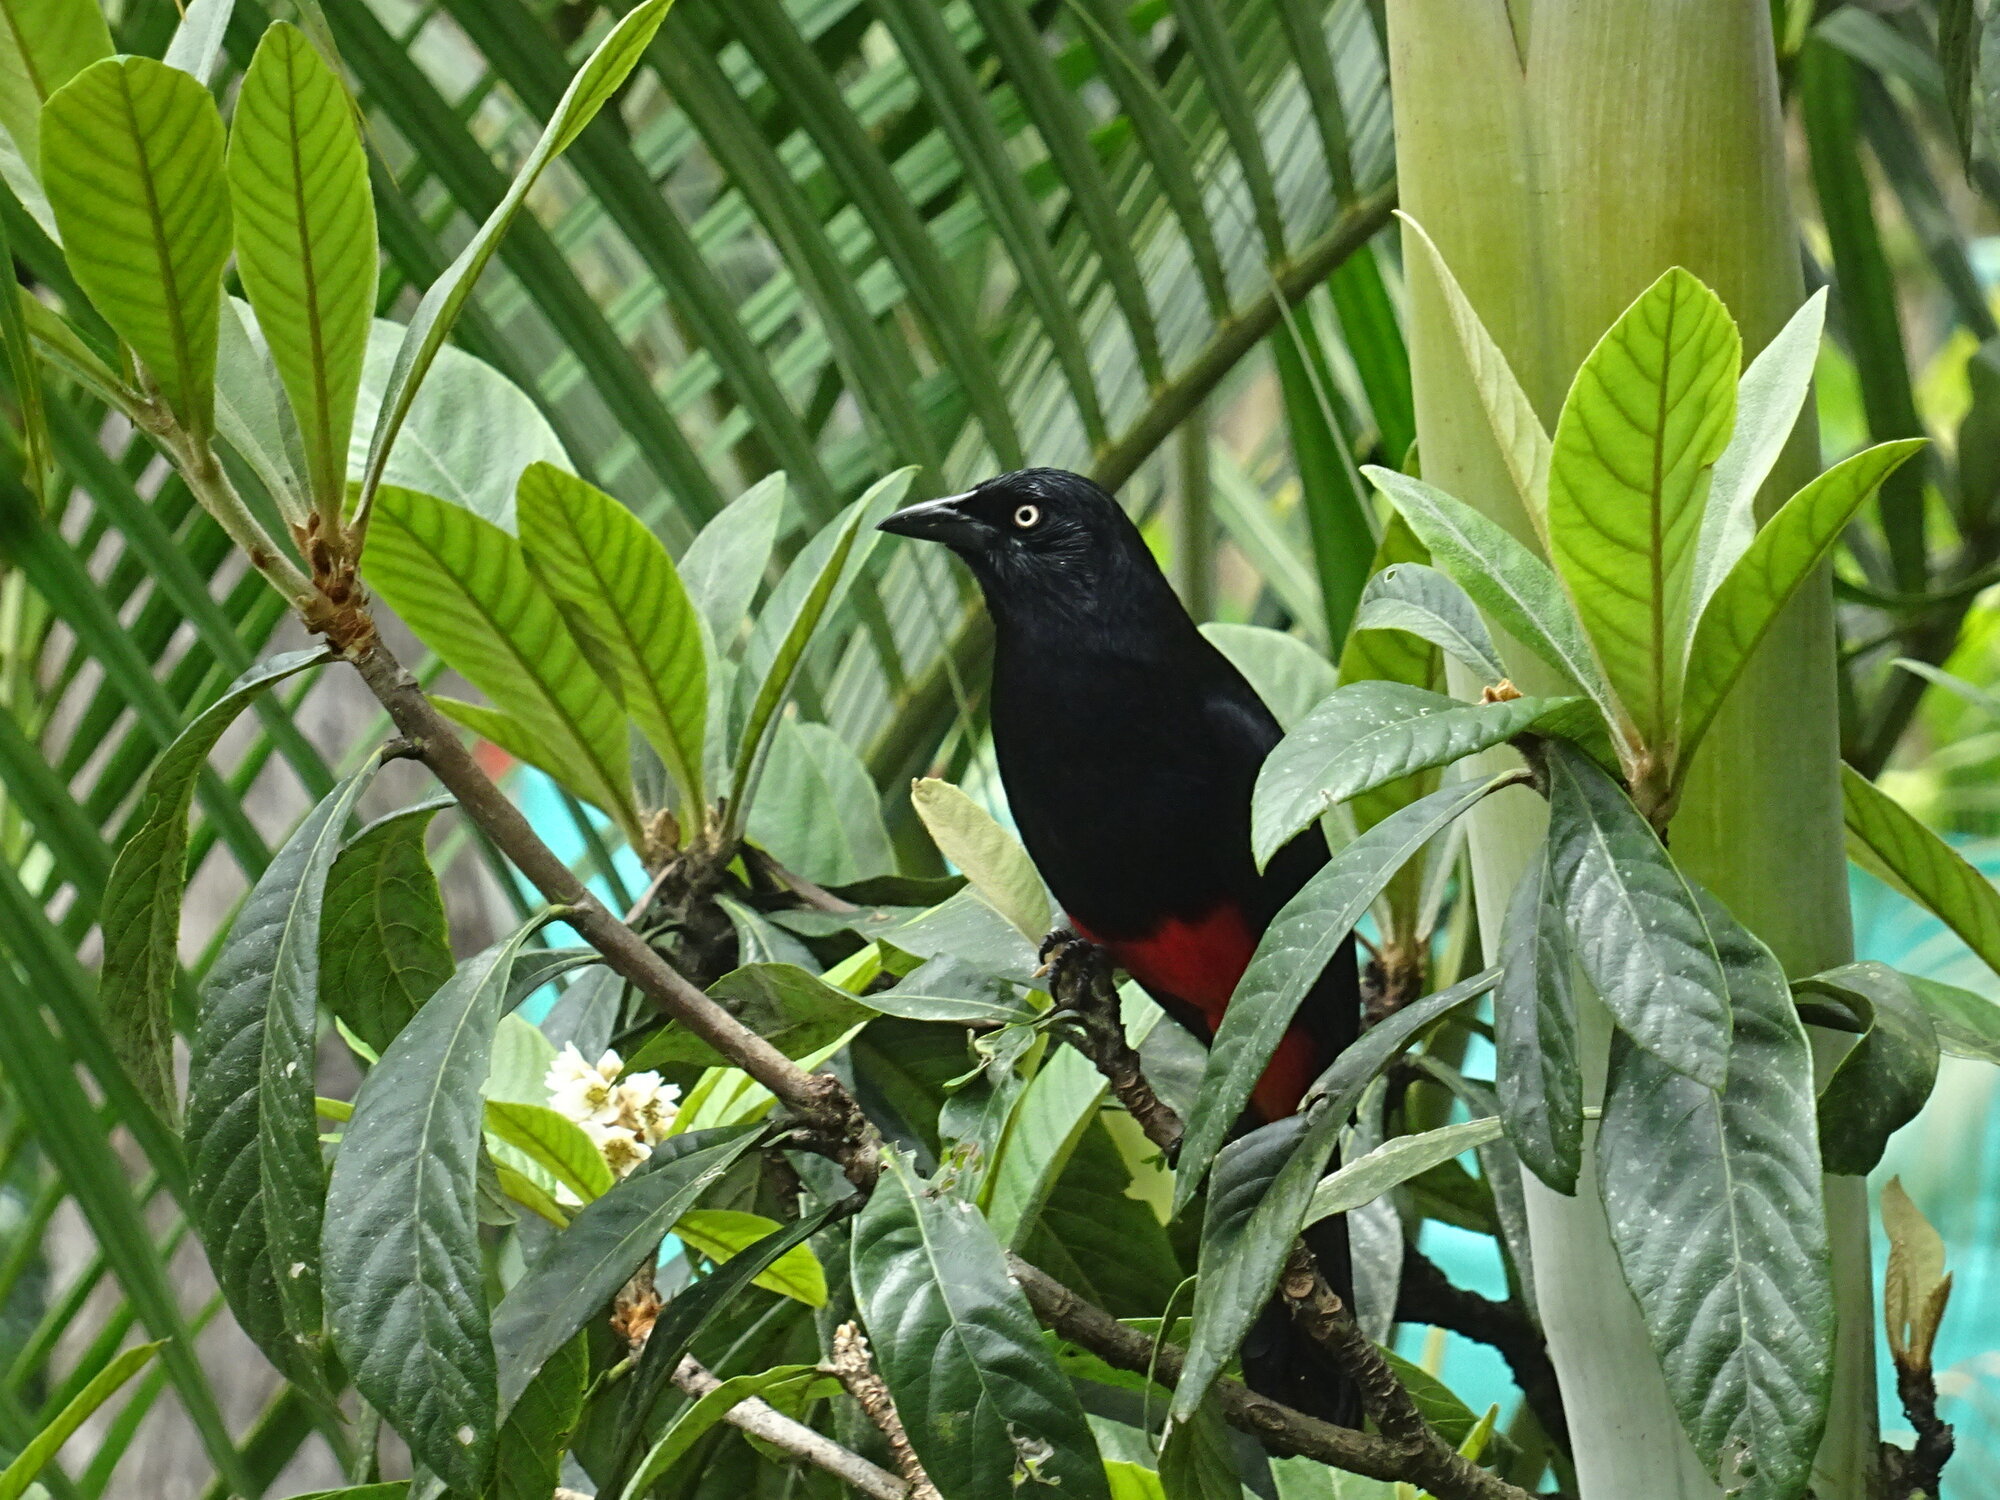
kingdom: Animalia
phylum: Chordata
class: Aves
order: Passeriformes
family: Icteridae
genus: Hypopyrrhus
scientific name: Hypopyrrhus pyrohypogaster
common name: Red-bellied grackle
